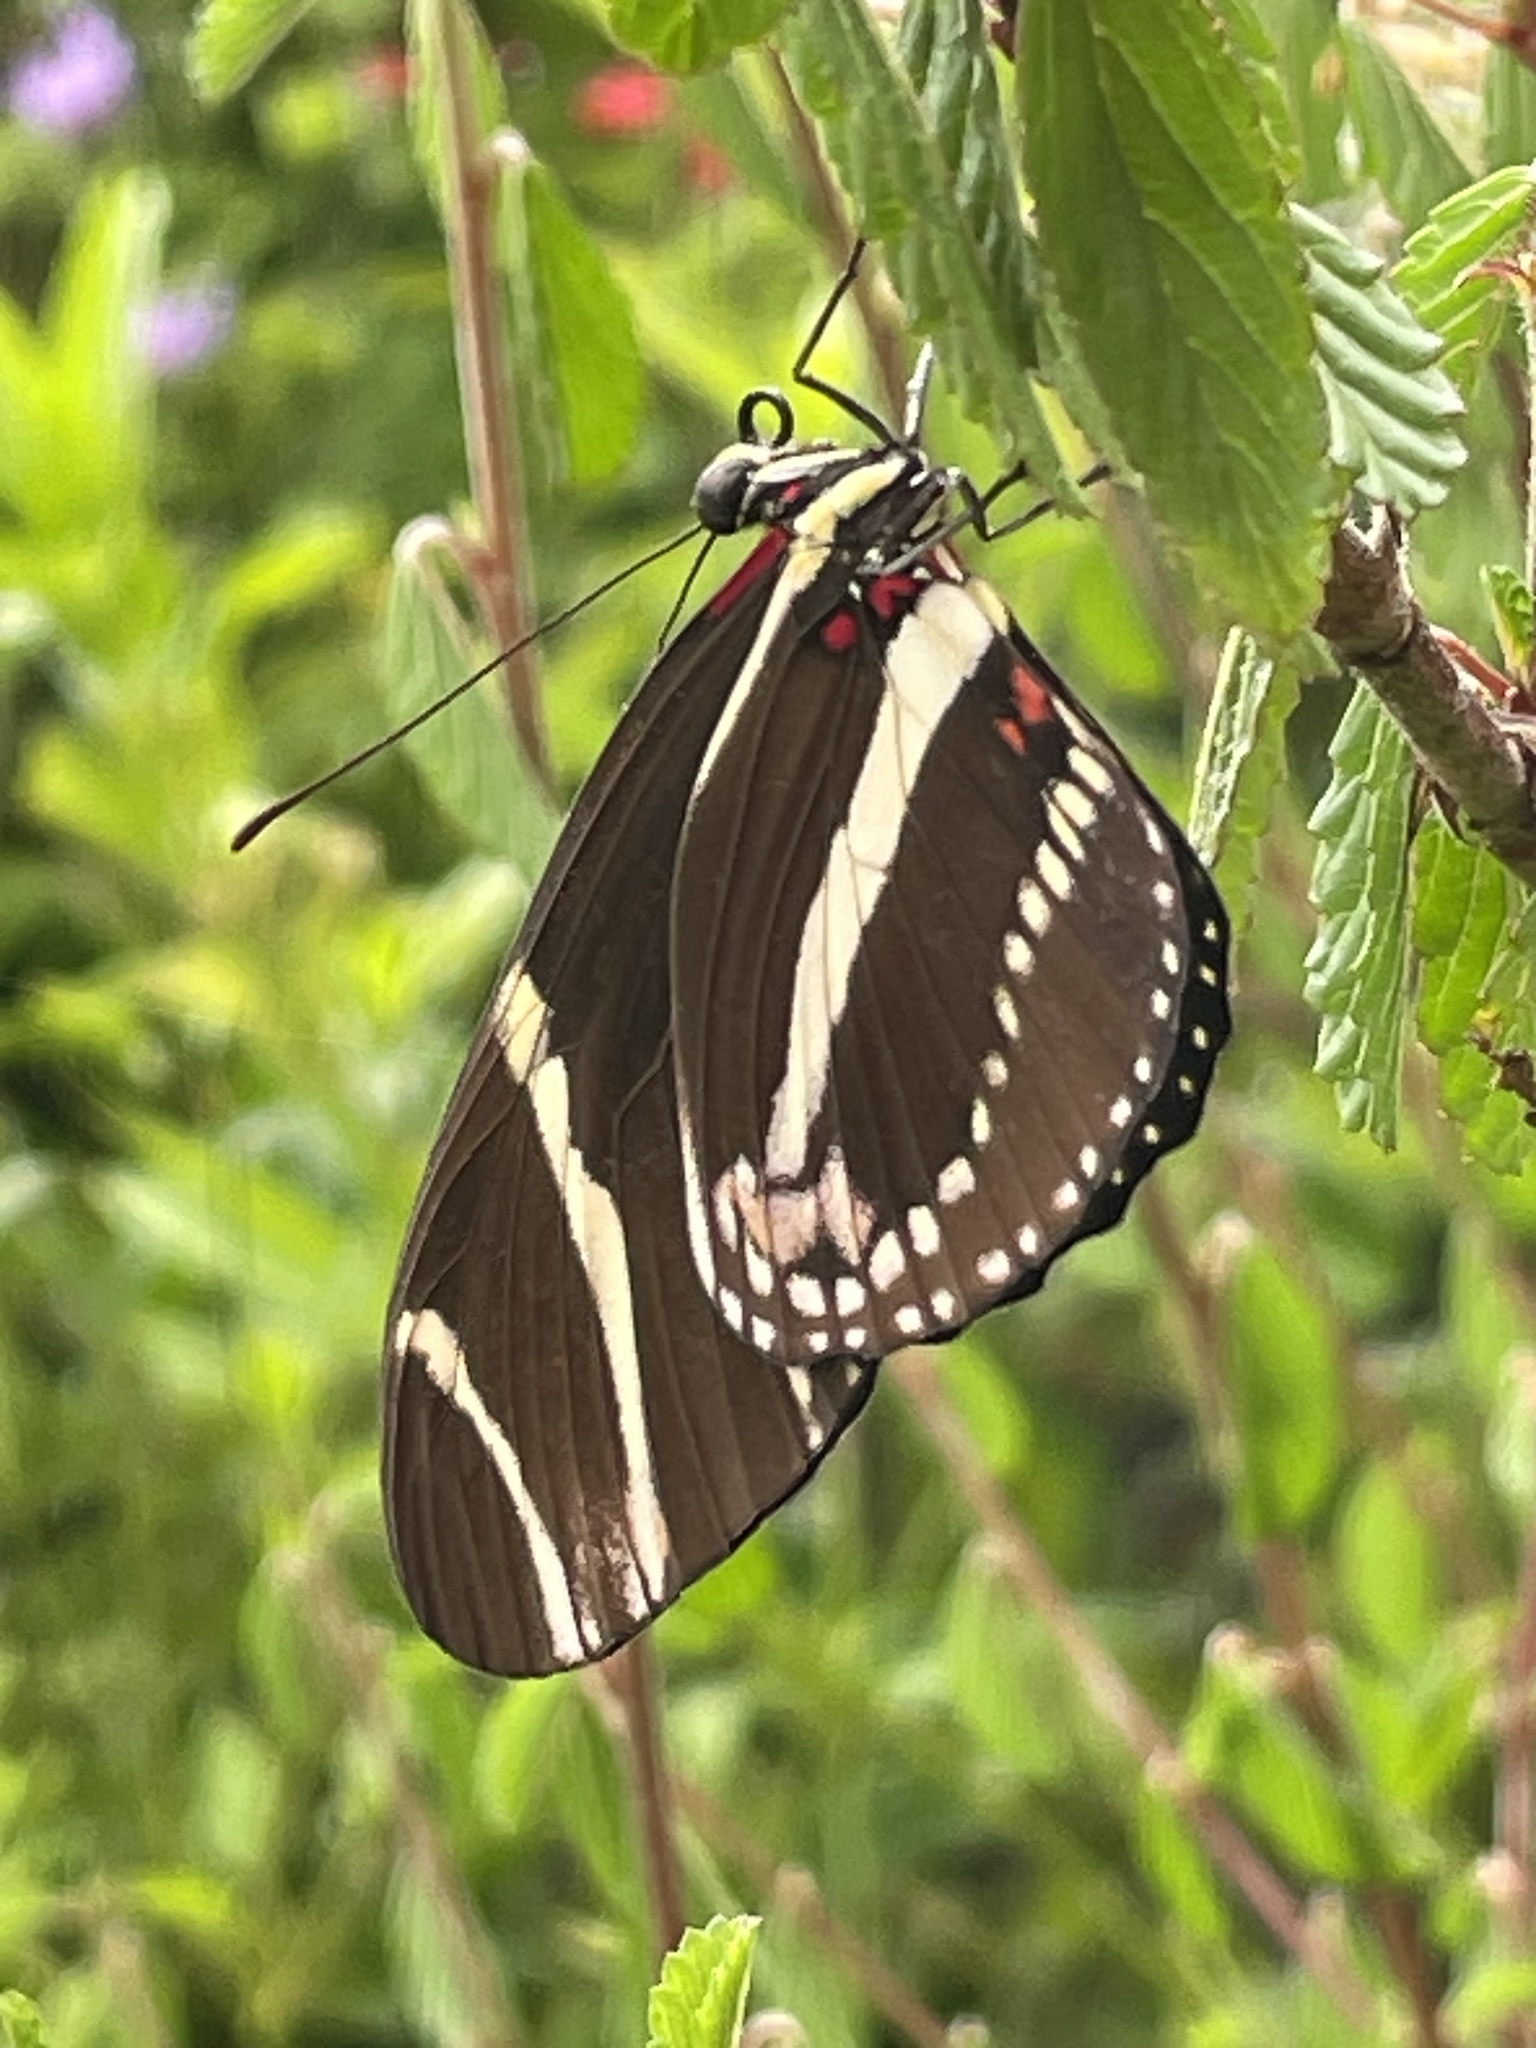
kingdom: Animalia
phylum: Arthropoda
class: Insecta
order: Lepidoptera
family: Nymphalidae
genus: Heliconius
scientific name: Heliconius charithonia
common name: Zebra long wing
